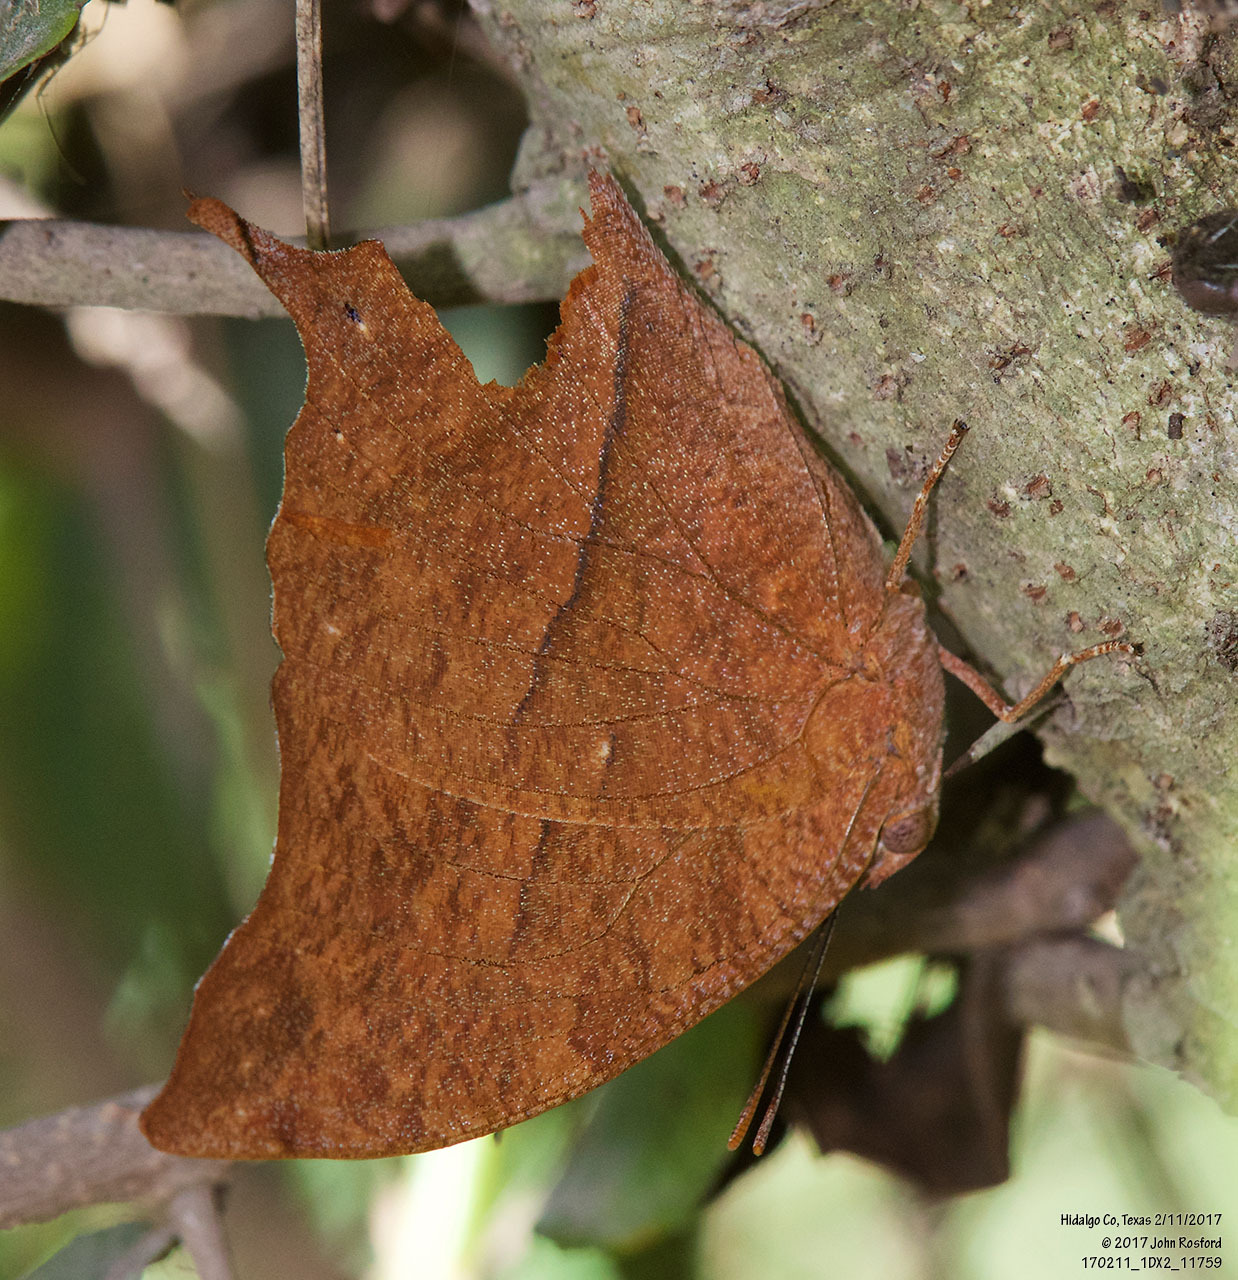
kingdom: Animalia
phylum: Arthropoda
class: Insecta
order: Lepidoptera
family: Nymphalidae
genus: Fountainea
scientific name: Fountainea
